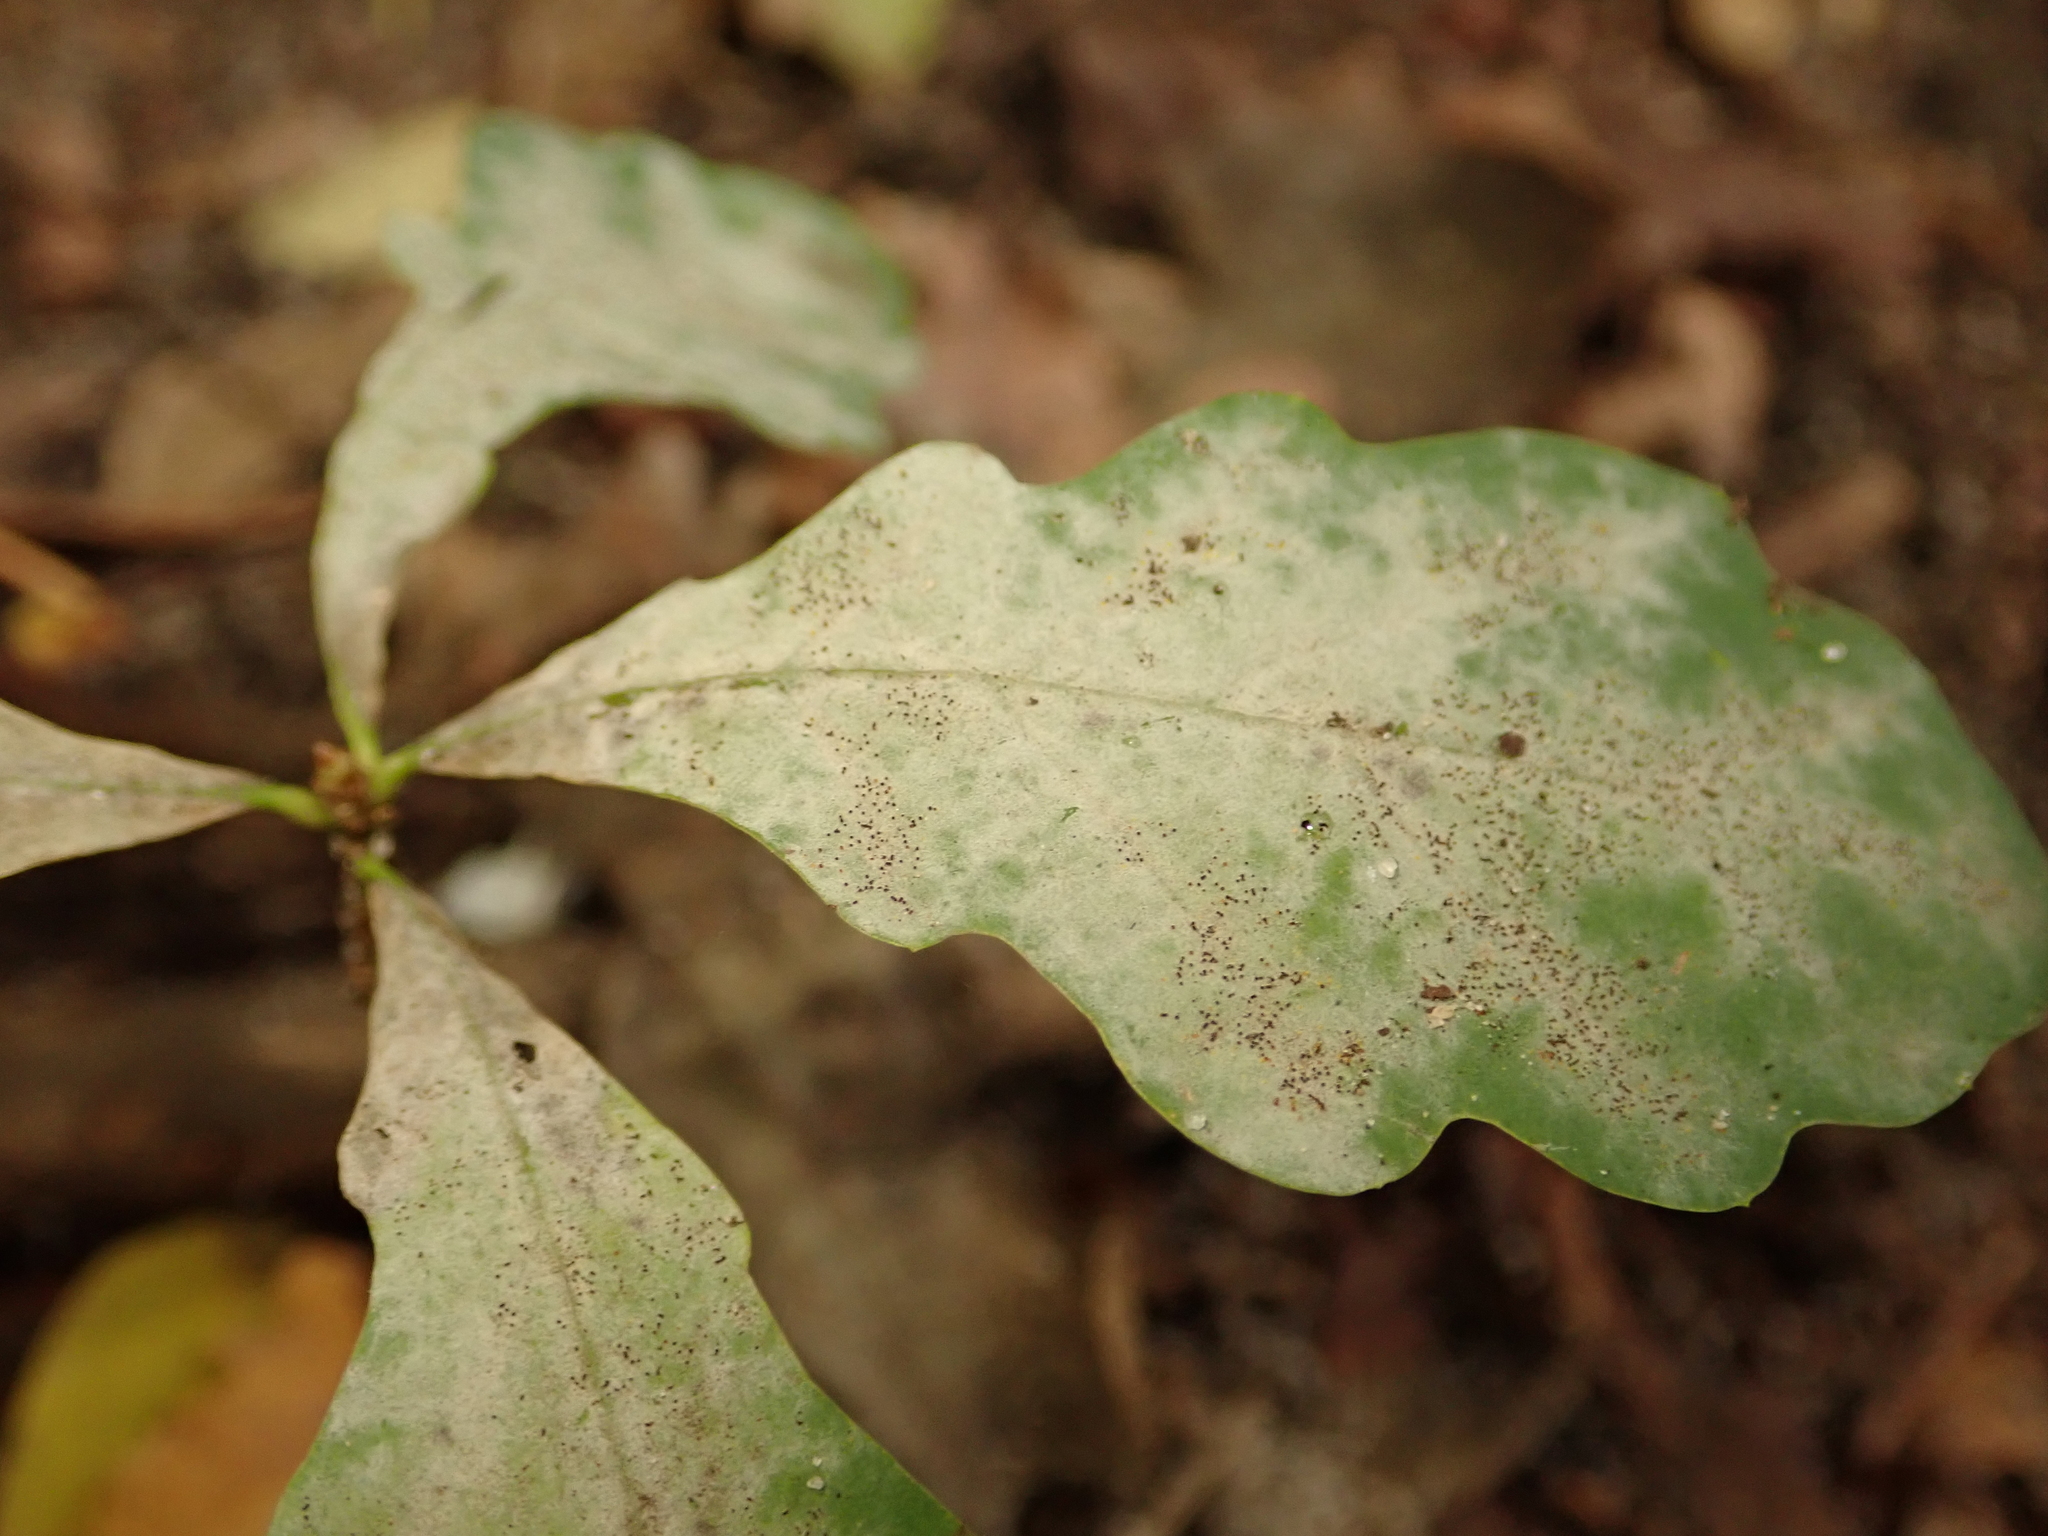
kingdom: Fungi
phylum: Ascomycota
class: Leotiomycetes
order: Helotiales
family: Erysiphaceae
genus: Erysiphe
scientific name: Erysiphe
